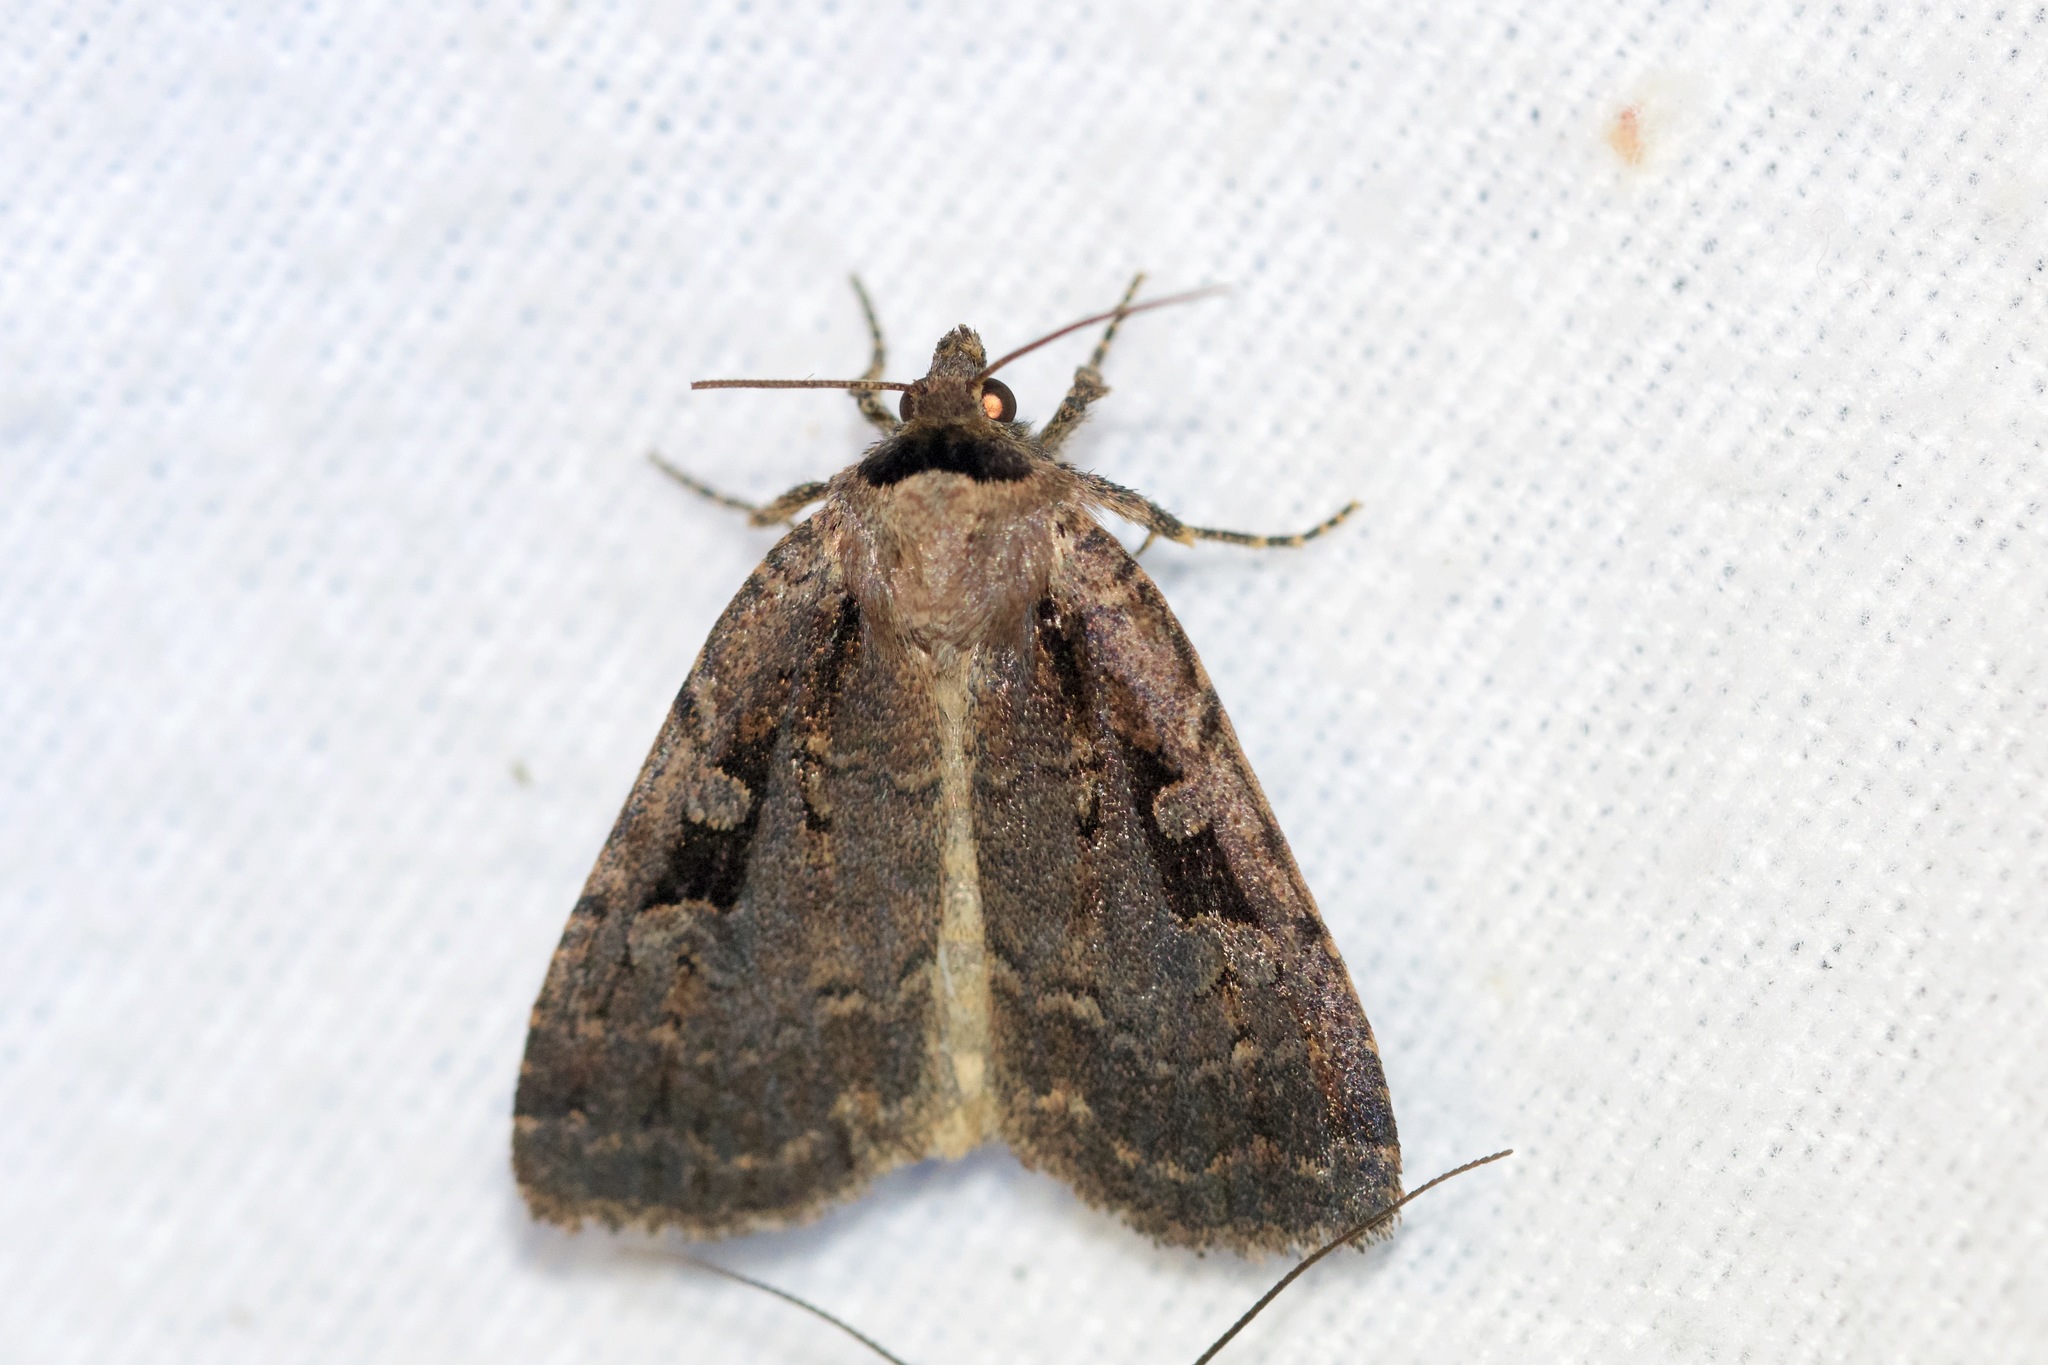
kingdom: Animalia
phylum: Arthropoda
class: Insecta
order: Lepidoptera
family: Noctuidae
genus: Eueretagrotis
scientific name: Eueretagrotis perattentus
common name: Two-spot dart moth
